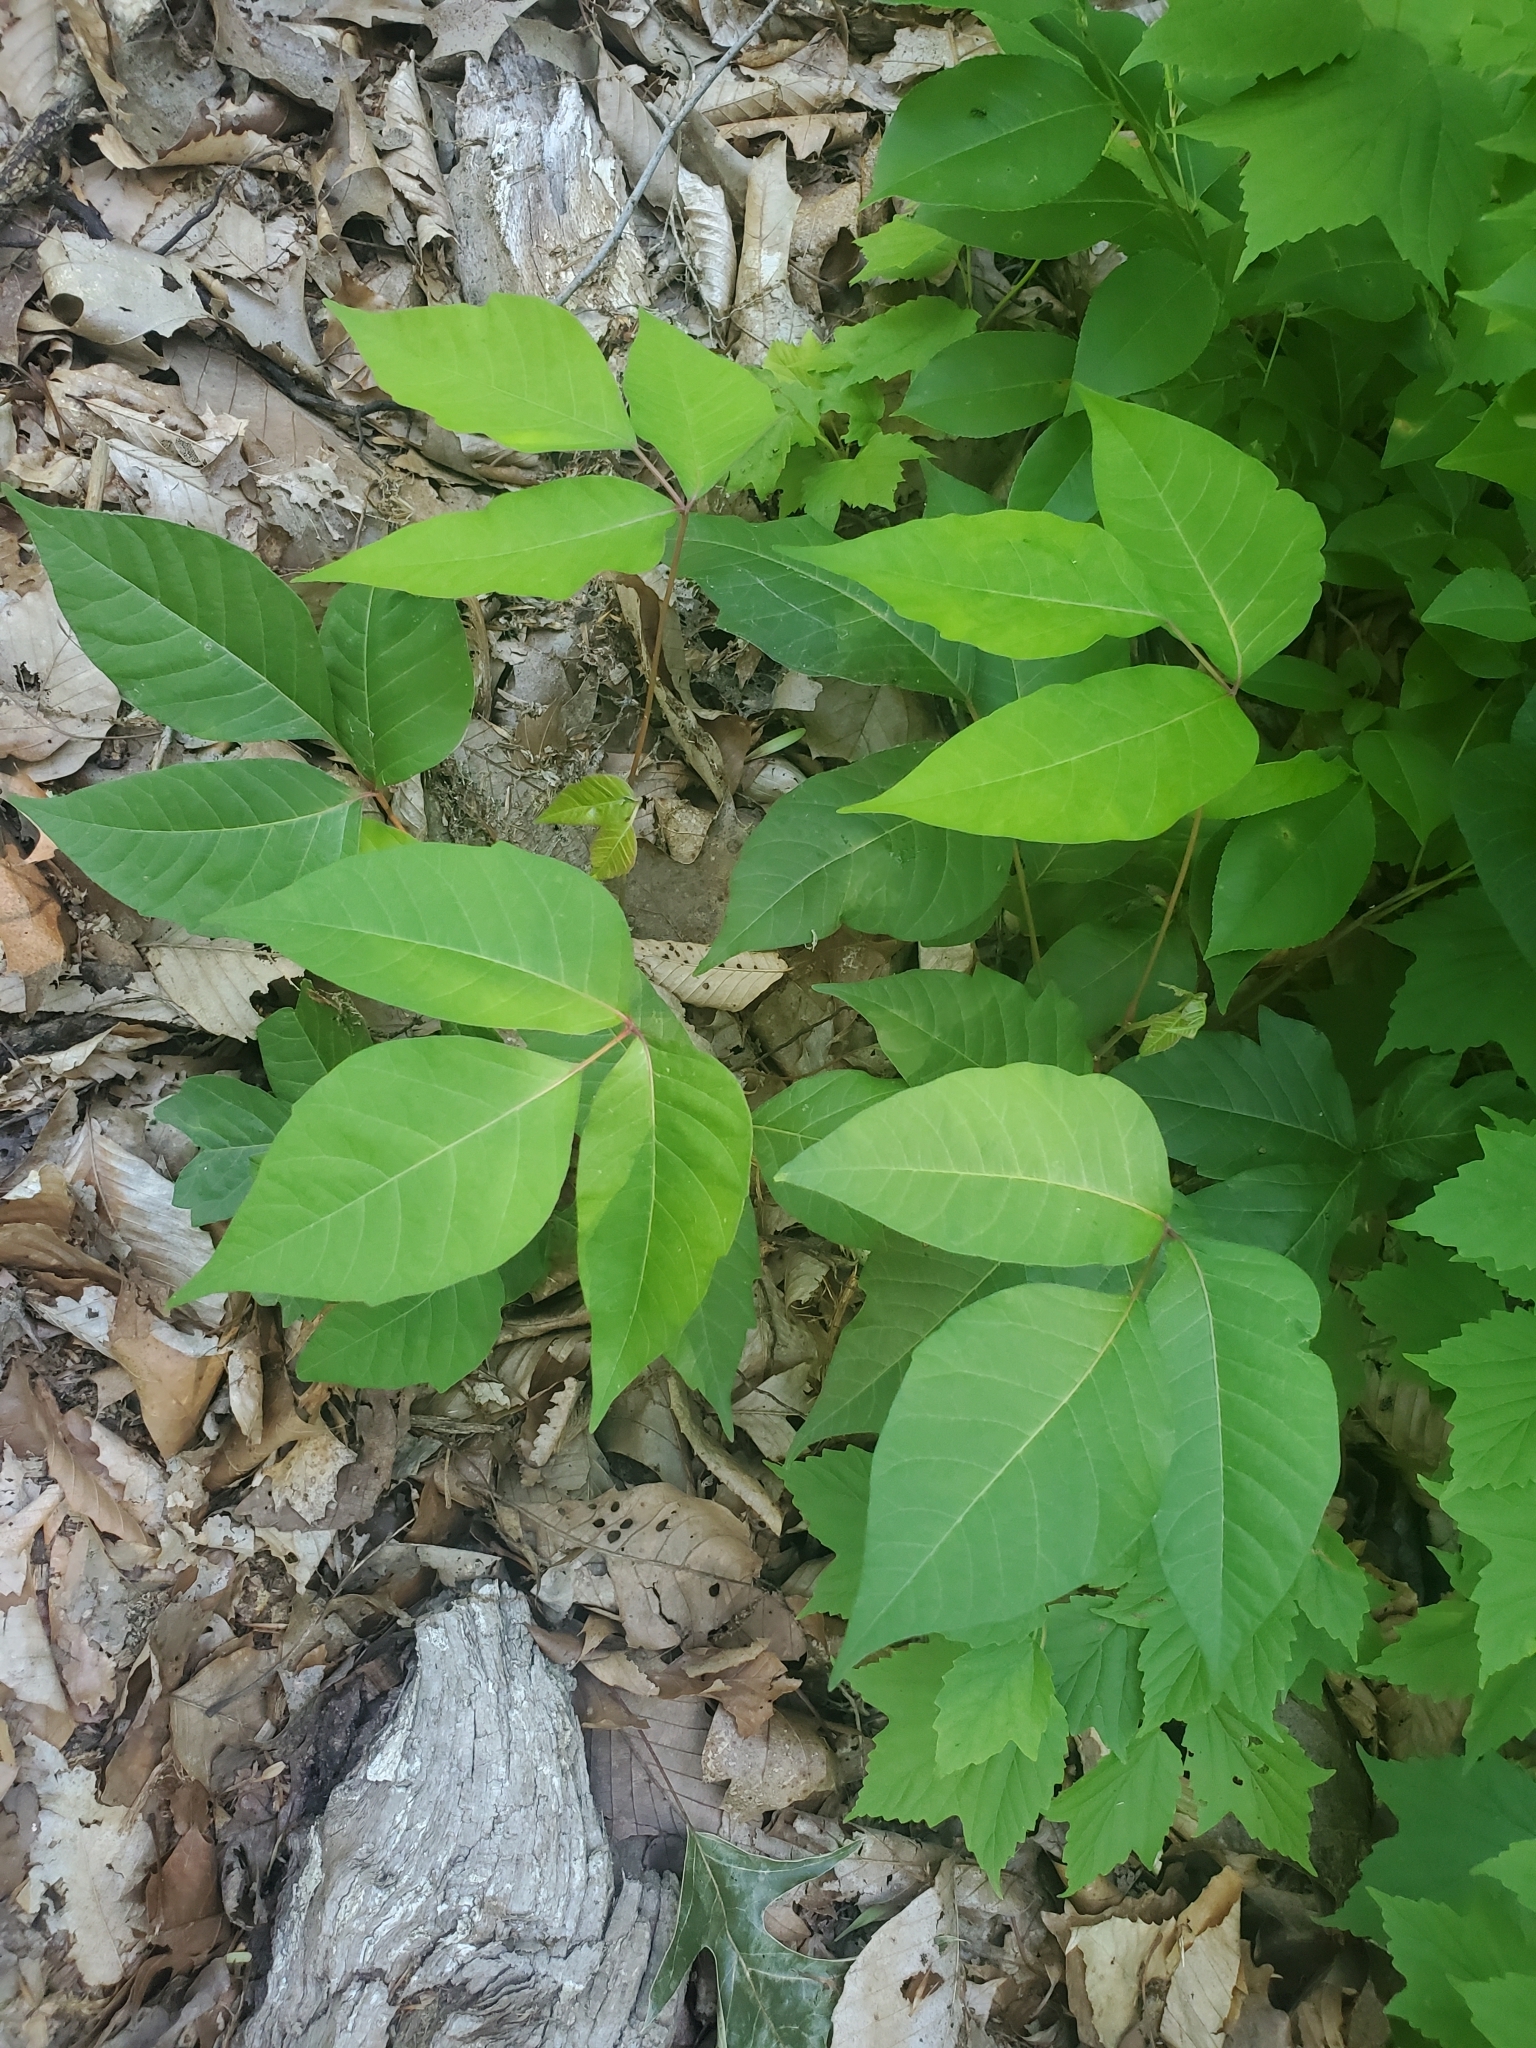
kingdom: Plantae
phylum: Tracheophyta
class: Magnoliopsida
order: Sapindales
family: Anacardiaceae
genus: Toxicodendron
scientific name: Toxicodendron radicans
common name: Poison ivy
